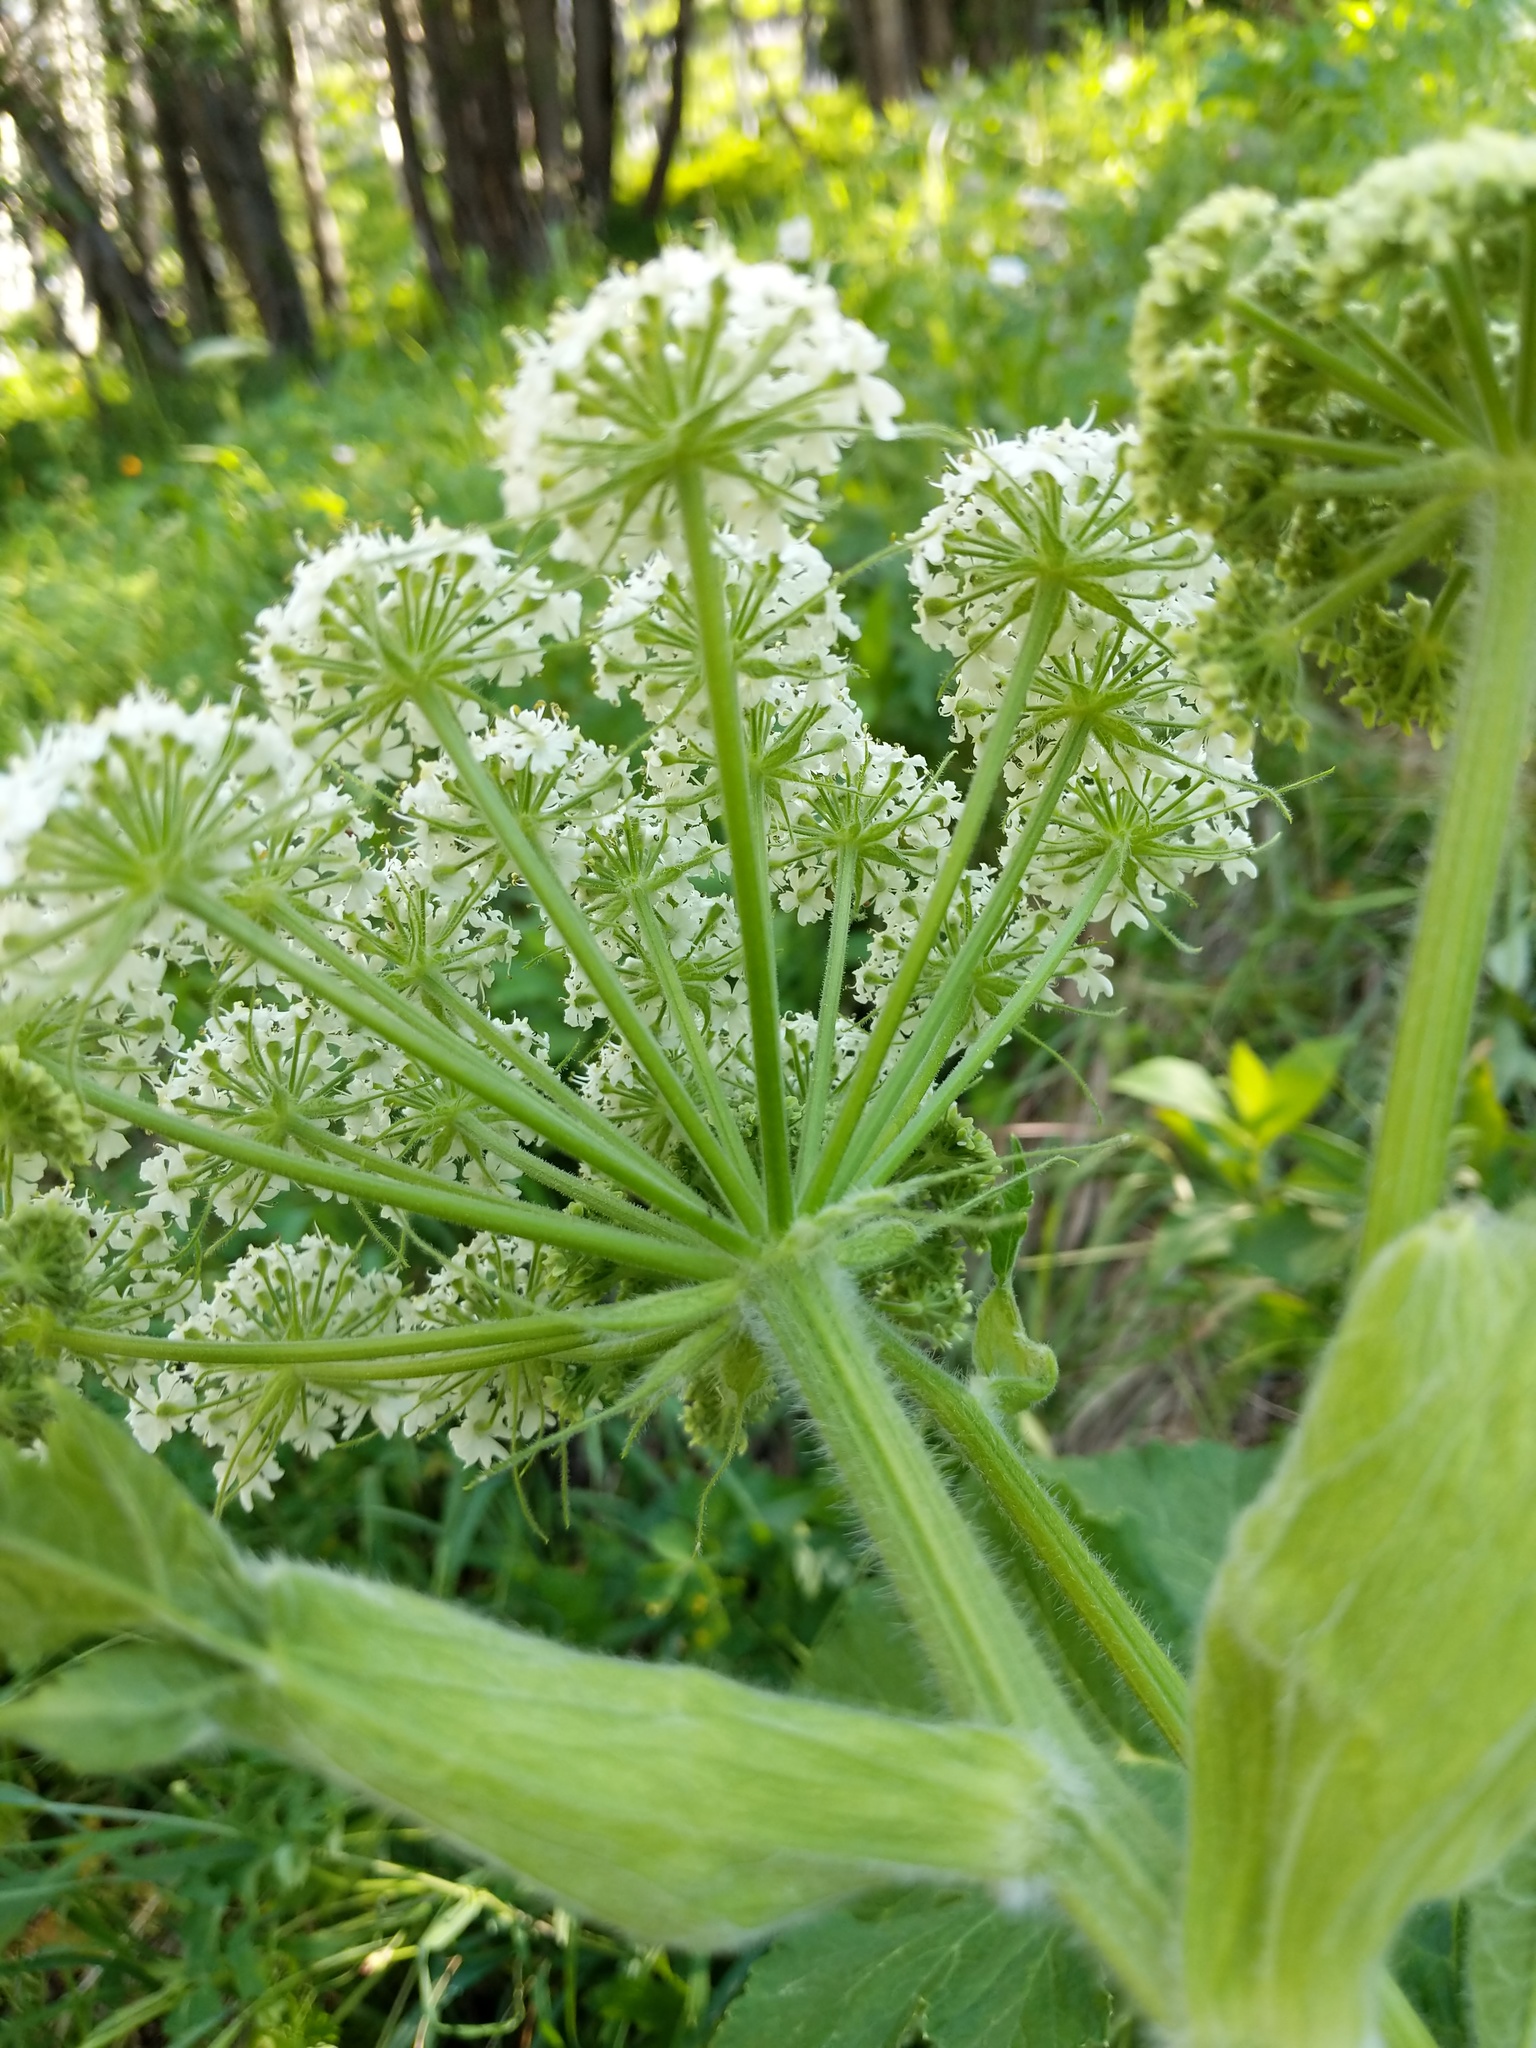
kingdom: Plantae
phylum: Tracheophyta
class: Magnoliopsida
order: Apiales
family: Apiaceae
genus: Heracleum
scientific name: Heracleum maximum
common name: American cow parsnip
